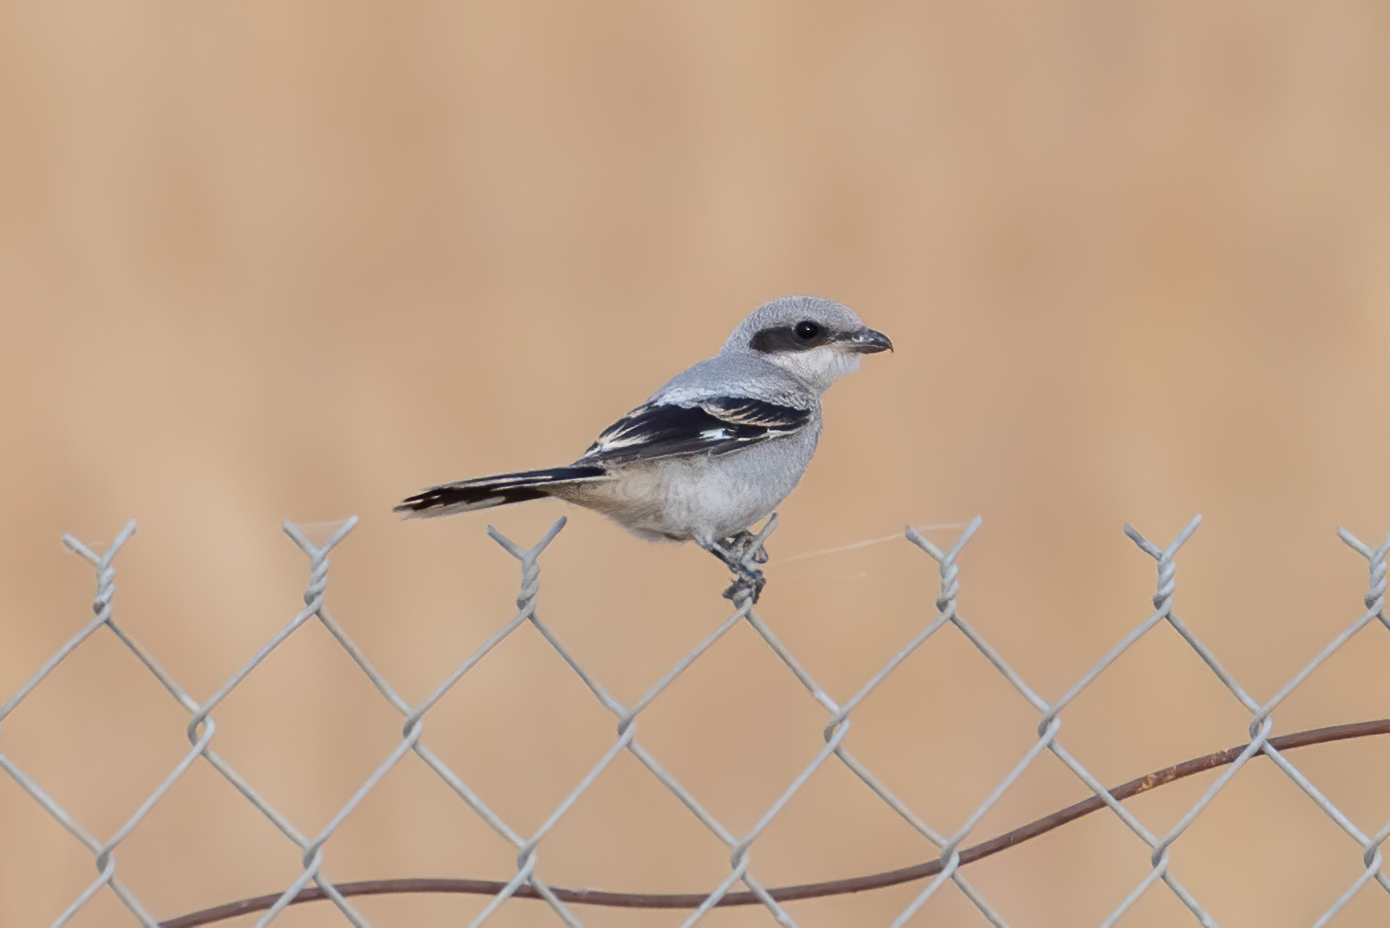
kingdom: Animalia
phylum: Chordata
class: Aves
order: Passeriformes
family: Laniidae
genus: Lanius
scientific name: Lanius ludovicianus
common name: Loggerhead shrike
